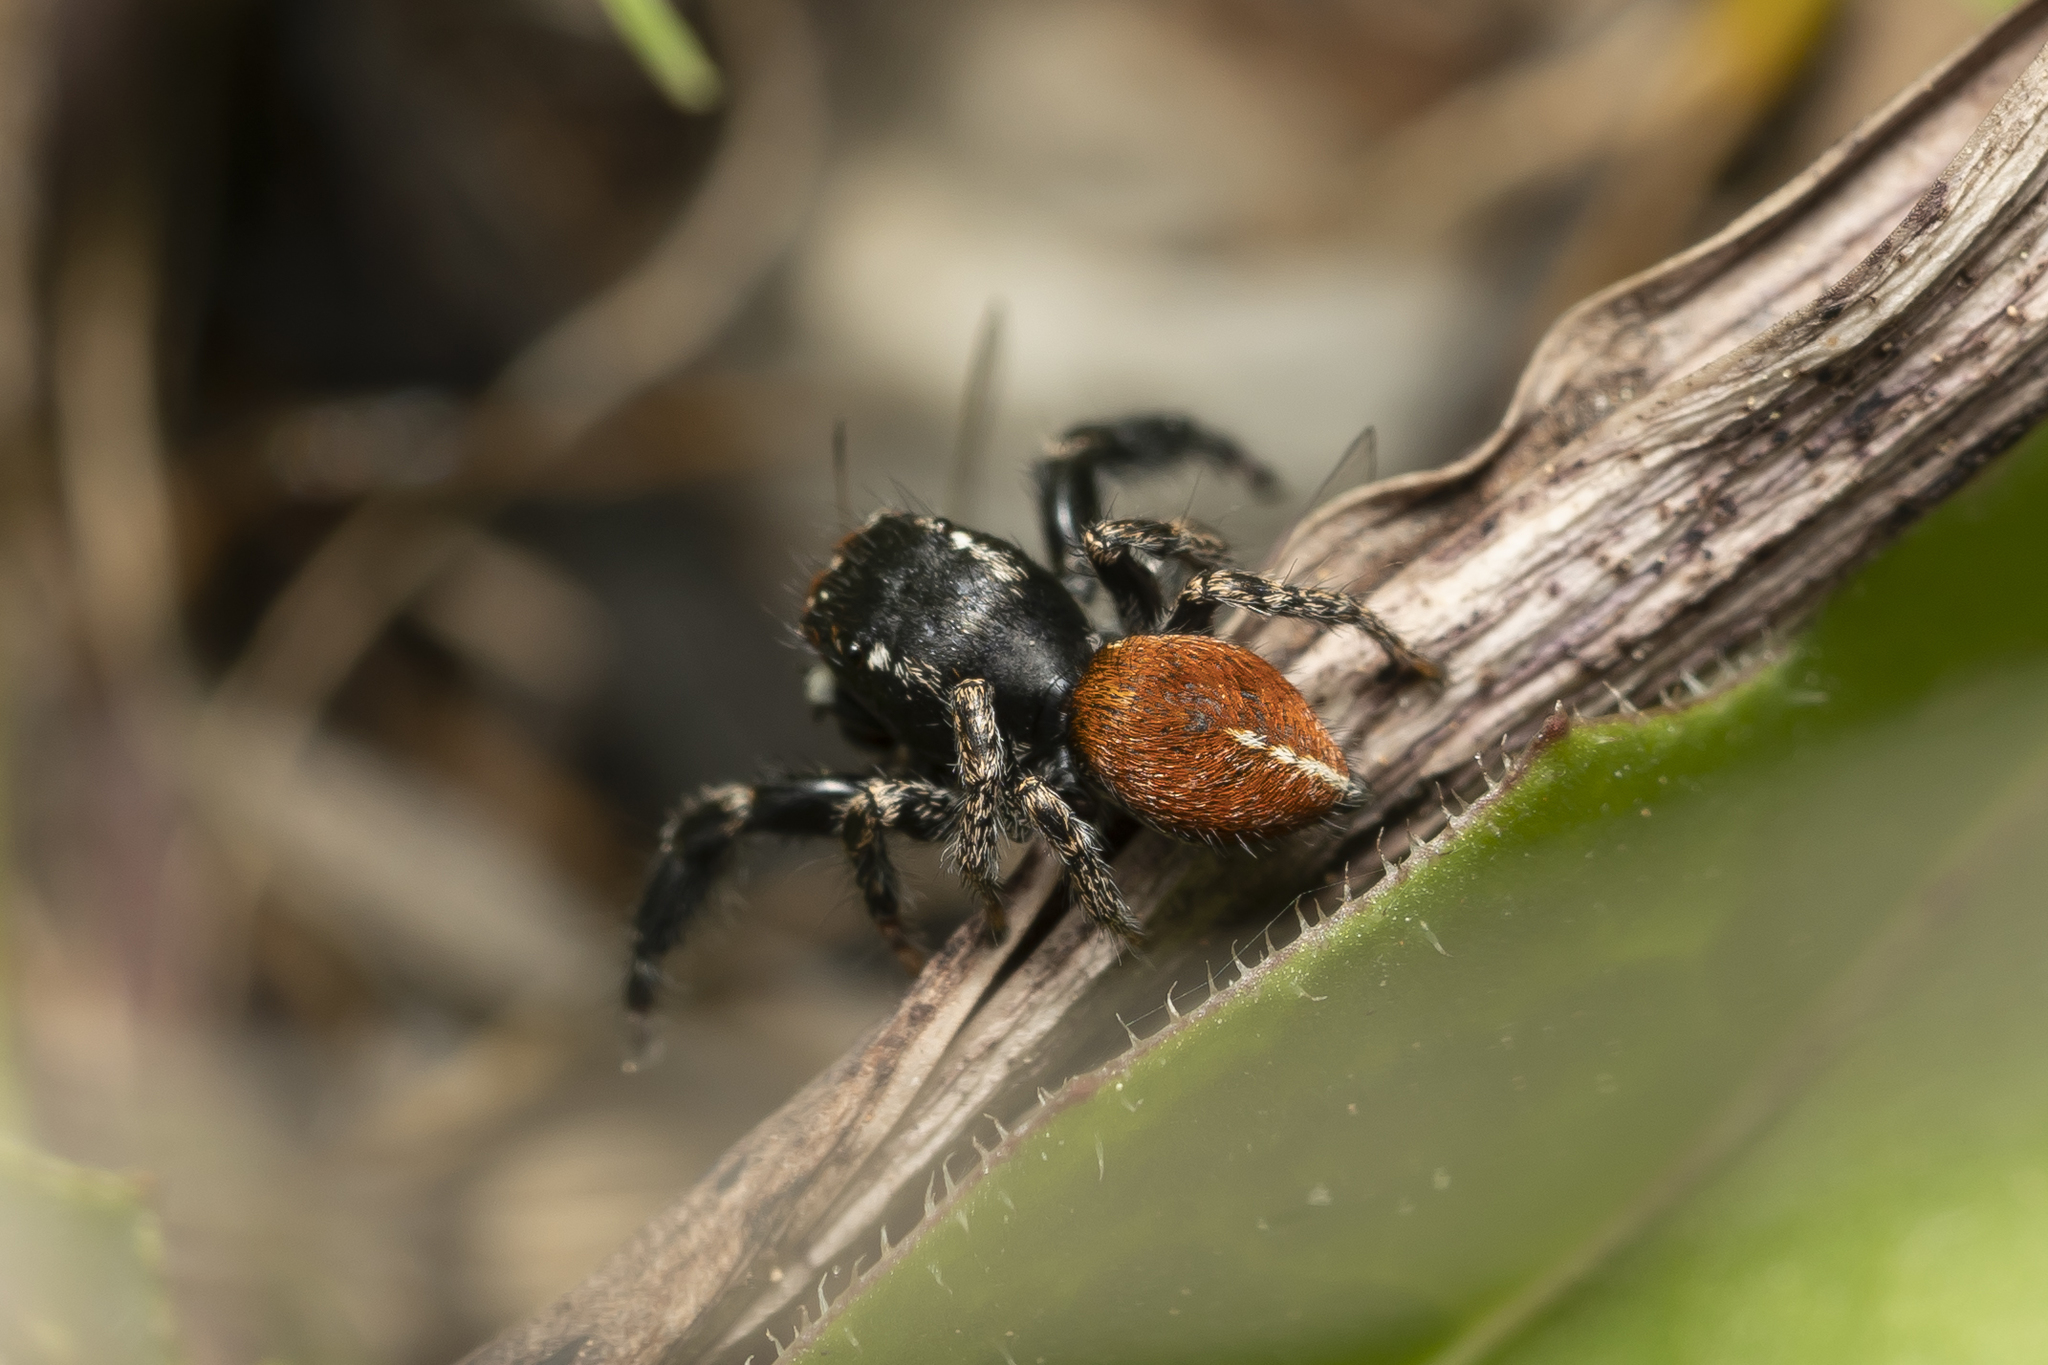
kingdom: Animalia
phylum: Arthropoda
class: Arachnida
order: Araneae
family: Salticidae
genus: Pellenes
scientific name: Pellenes diagonalis
